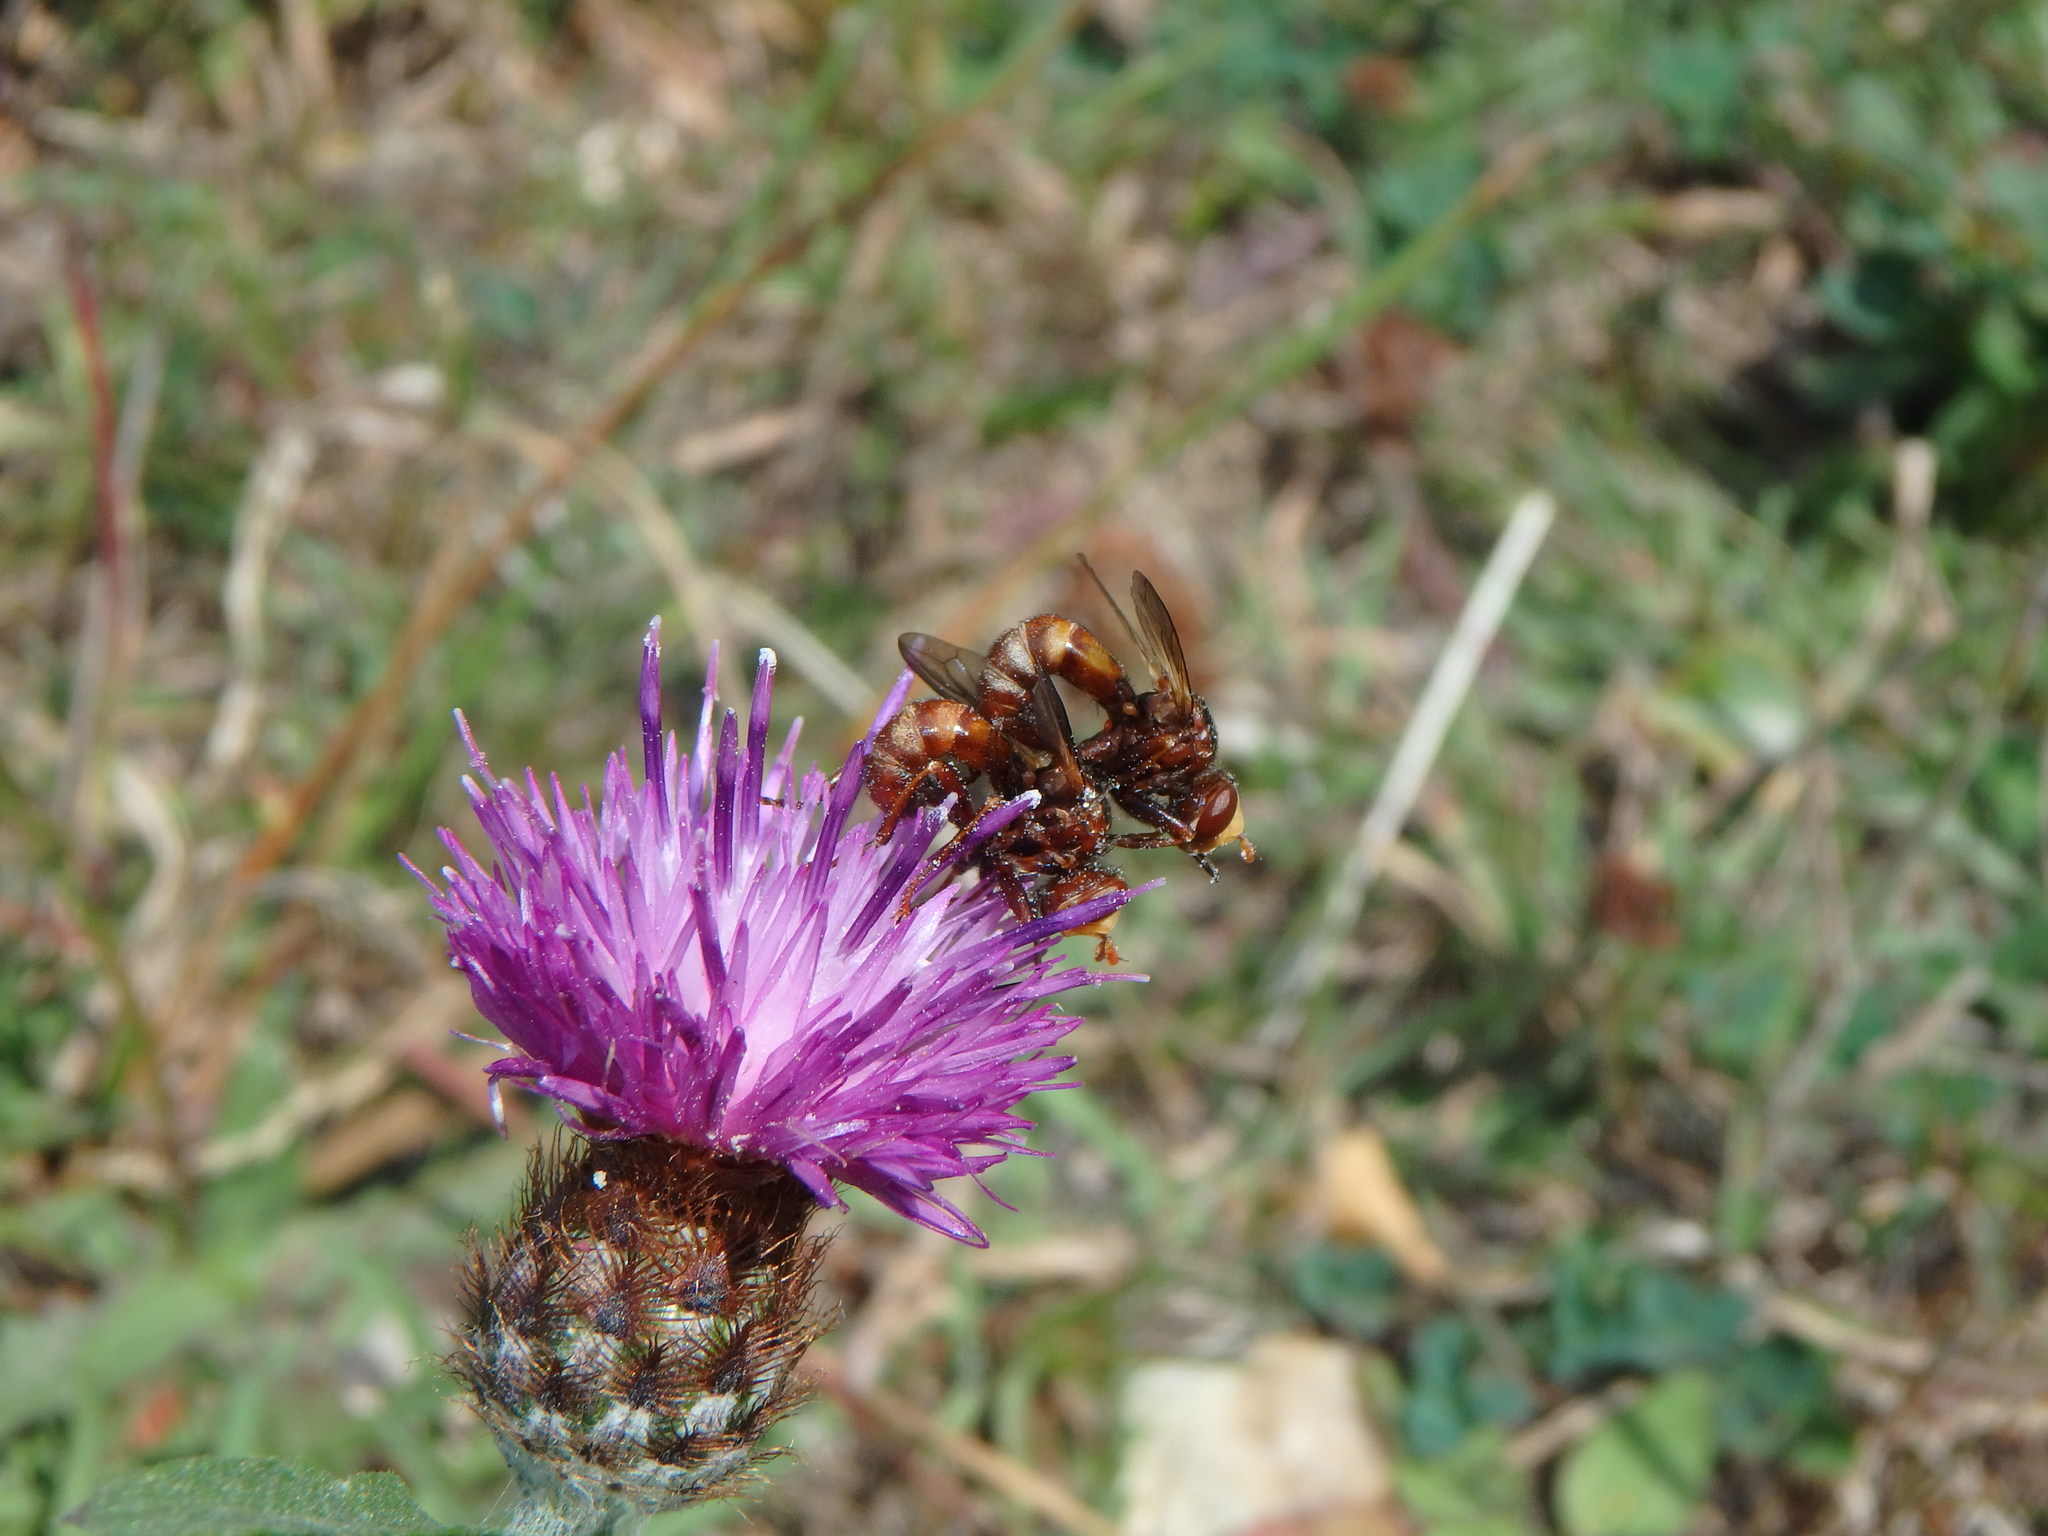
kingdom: Animalia
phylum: Arthropoda
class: Insecta
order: Diptera
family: Conopidae
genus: Sicus
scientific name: Sicus ferrugineus
